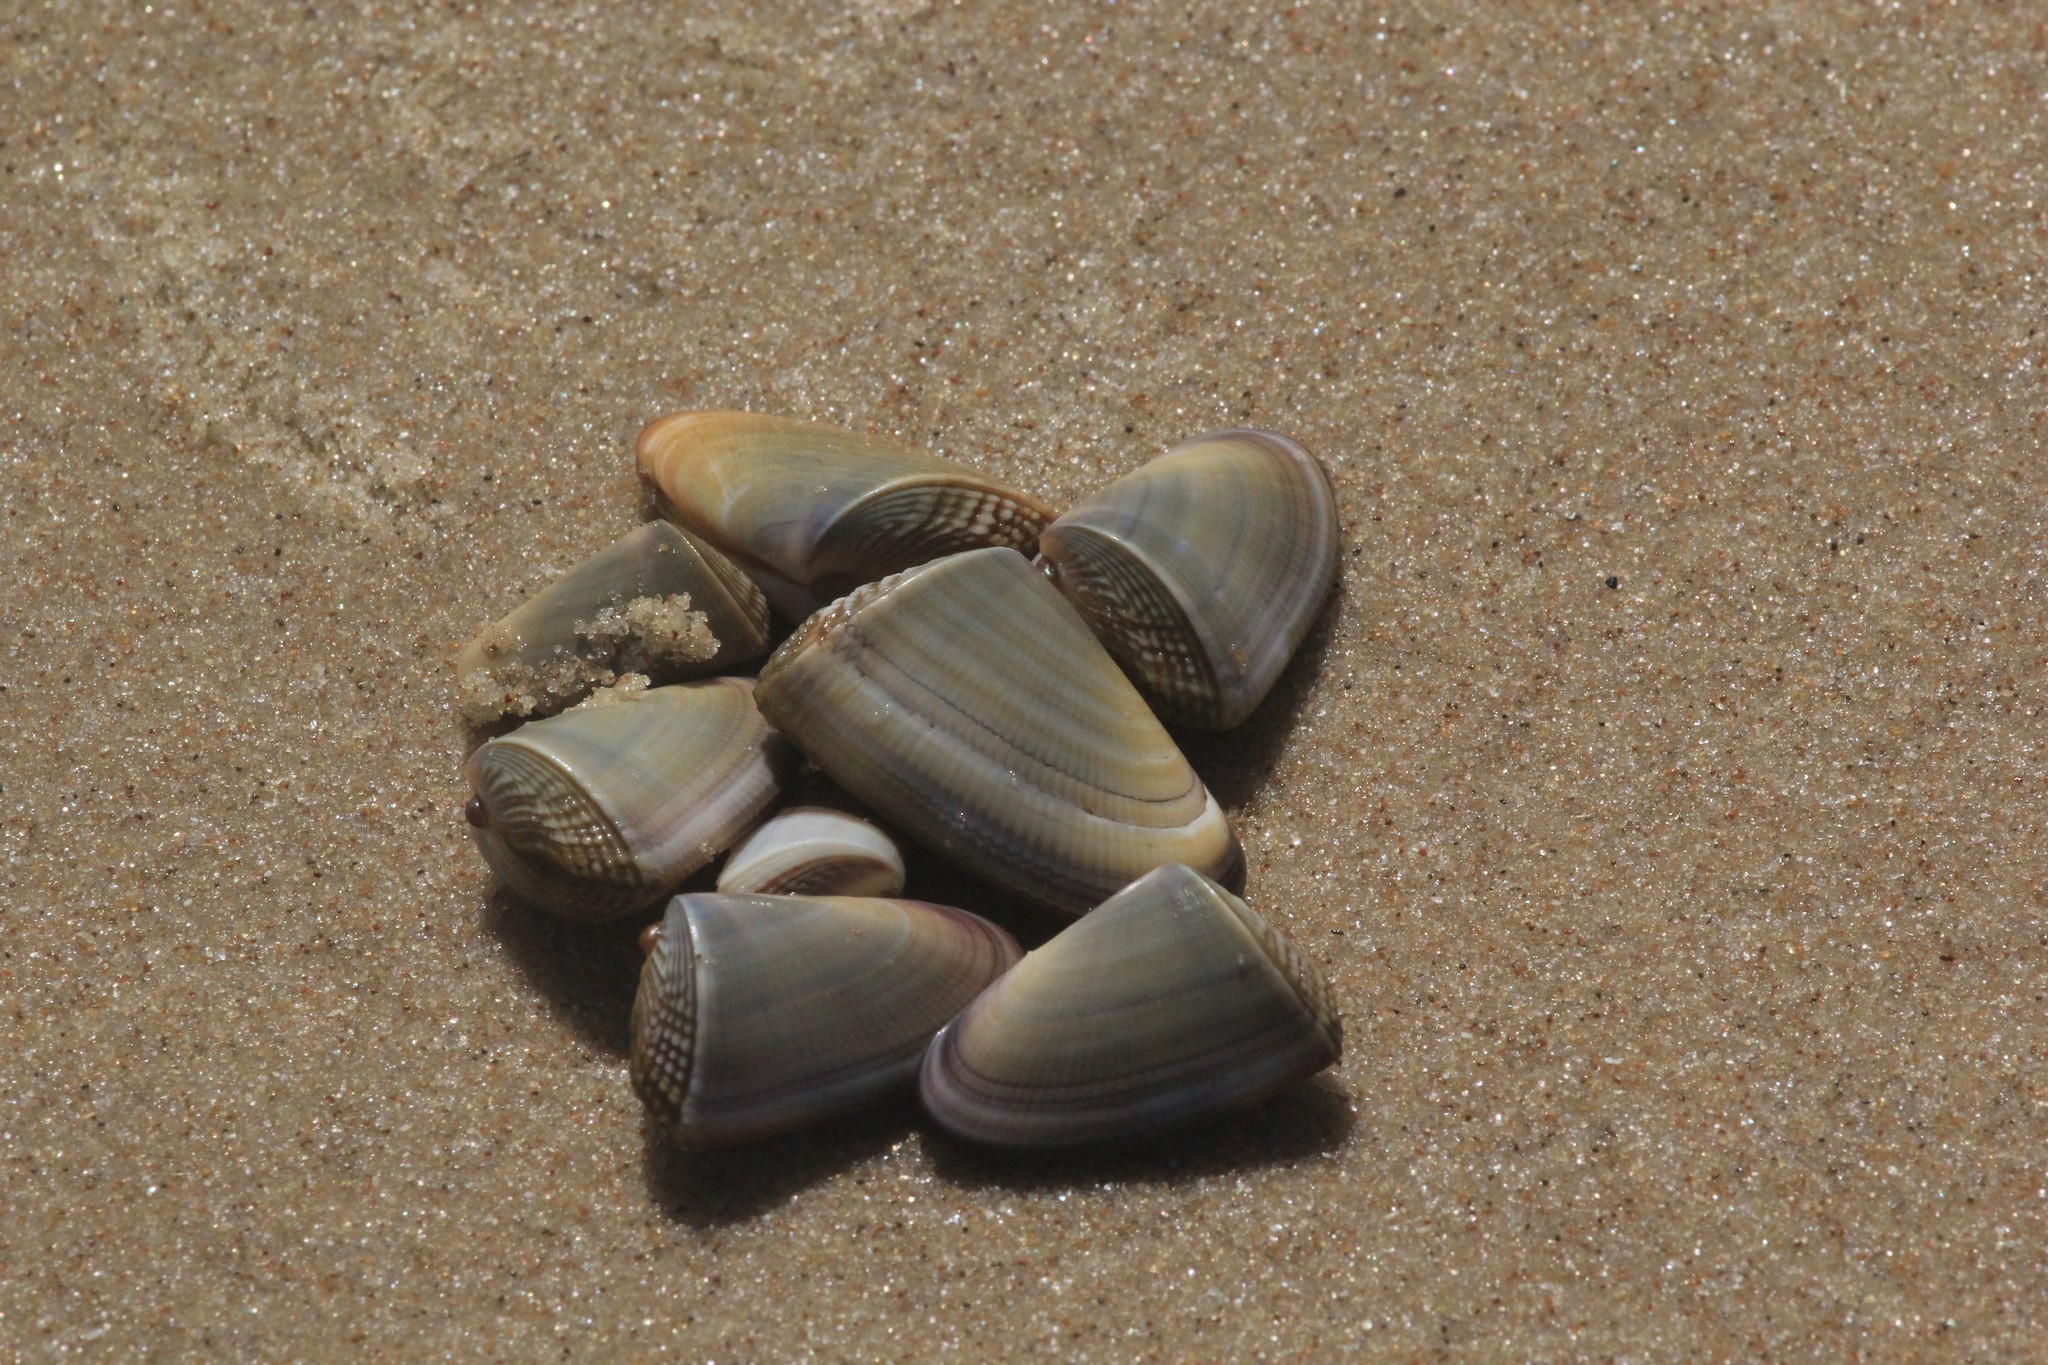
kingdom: Animalia
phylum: Mollusca
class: Bivalvia
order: Cardiida
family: Donacidae
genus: Donax
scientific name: Donax hanleyanus
